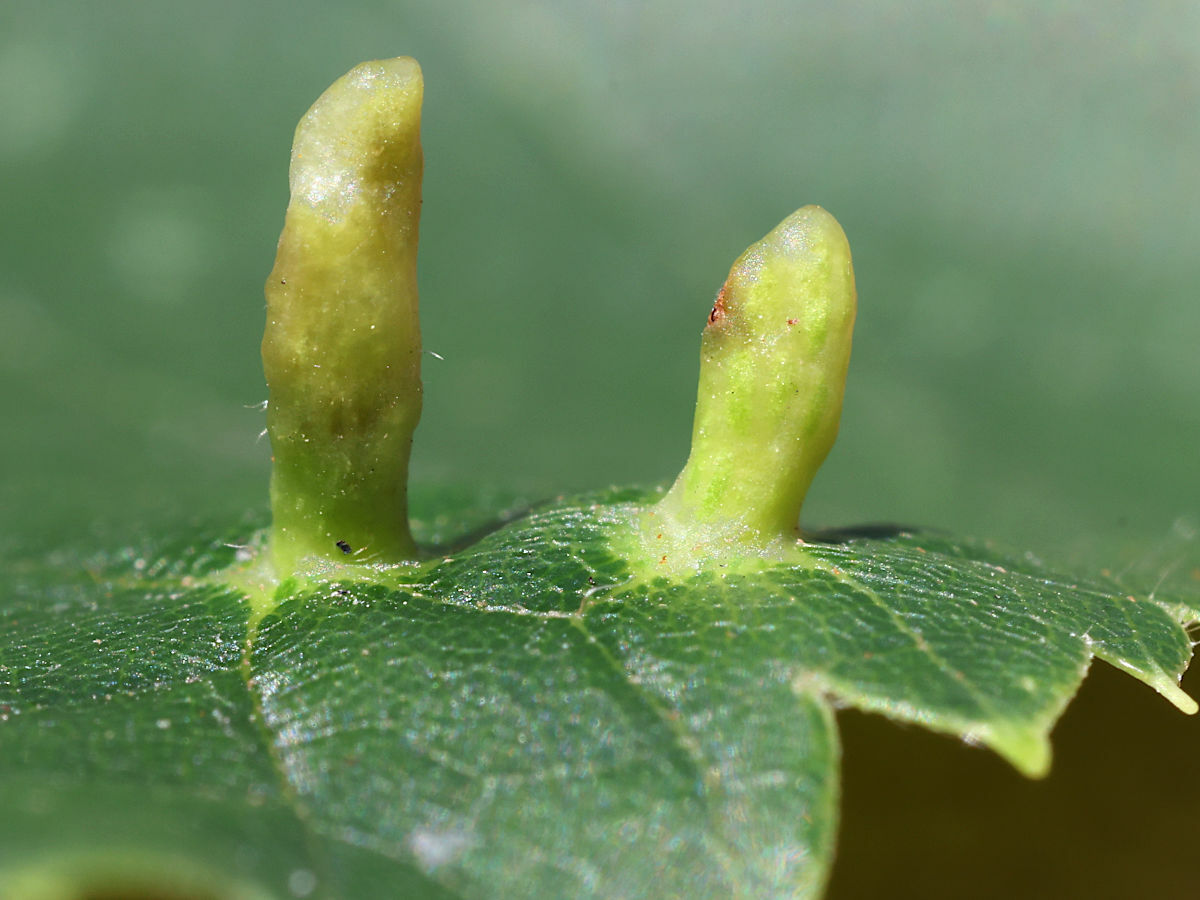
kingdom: Animalia
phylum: Arthropoda
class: Arachnida
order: Trombidiformes
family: Eriophyidae
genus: Eriophyes
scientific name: Eriophyes tiliae
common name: Red nail gall mite
